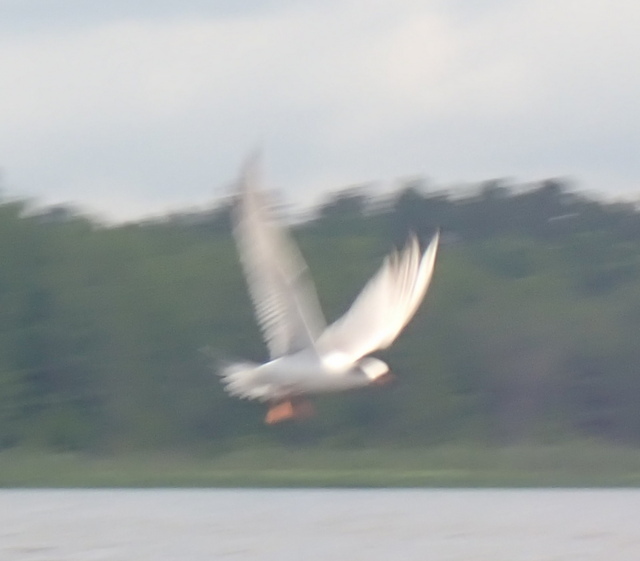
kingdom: Animalia
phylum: Chordata
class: Aves
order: Charadriiformes
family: Laridae
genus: Sterna
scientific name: Sterna forsteri
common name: Forster's tern
